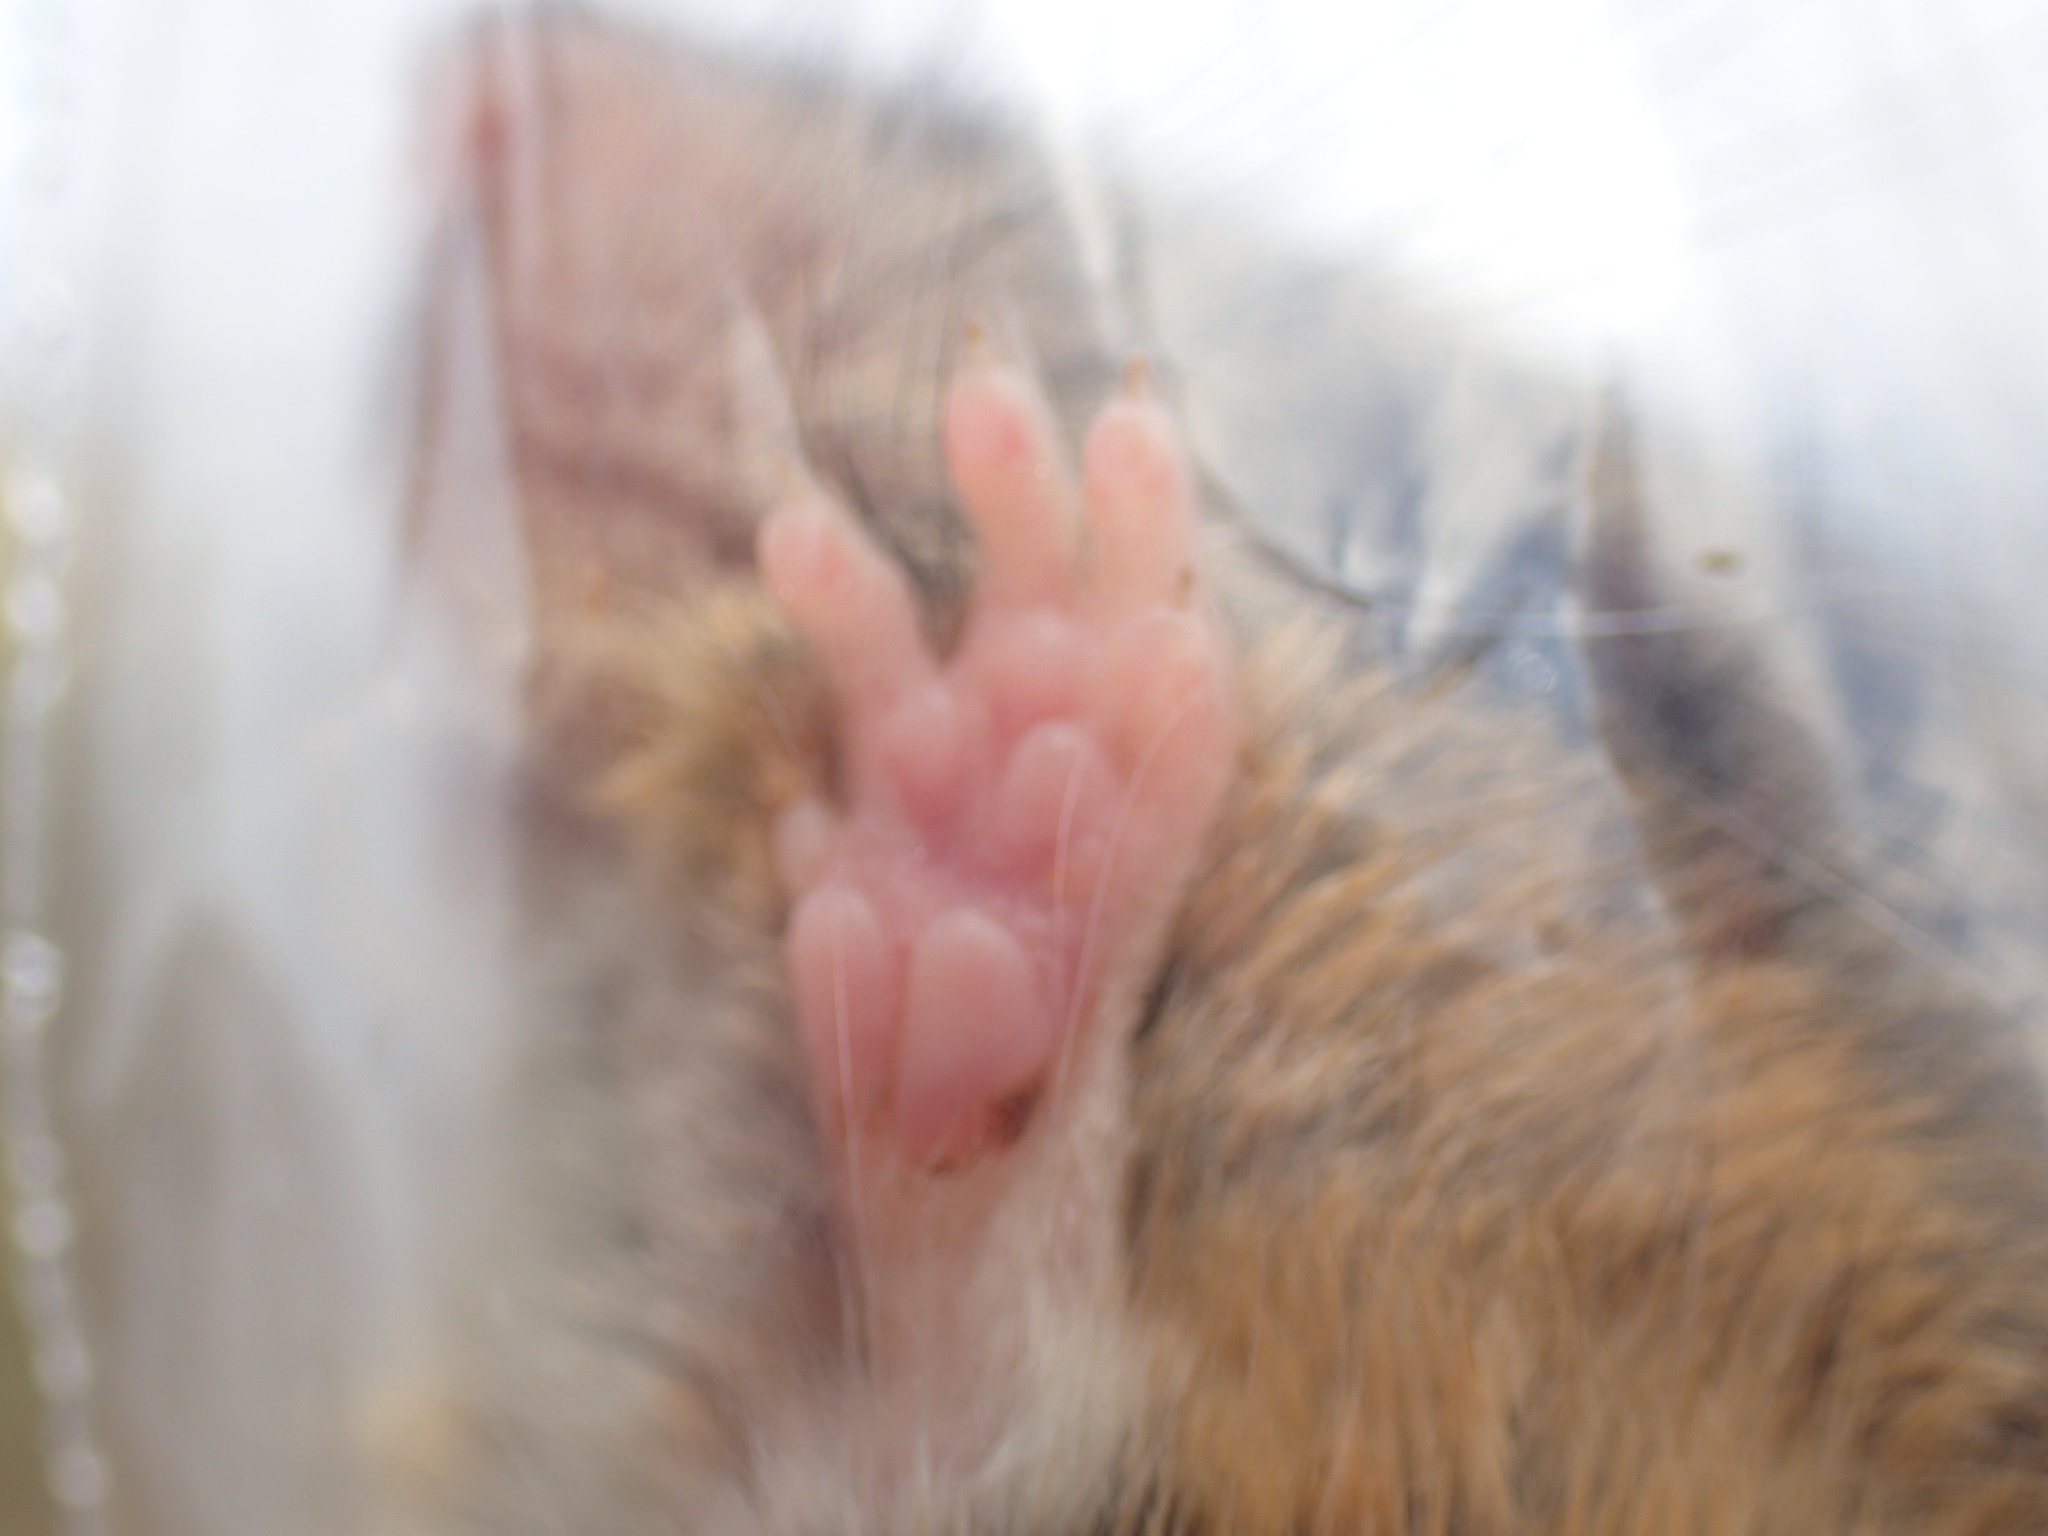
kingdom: Animalia
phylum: Chordata
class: Mammalia
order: Rodentia
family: Muridae
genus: Micaelamys
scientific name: Micaelamys namaquensis
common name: Namaqua micaelamys
